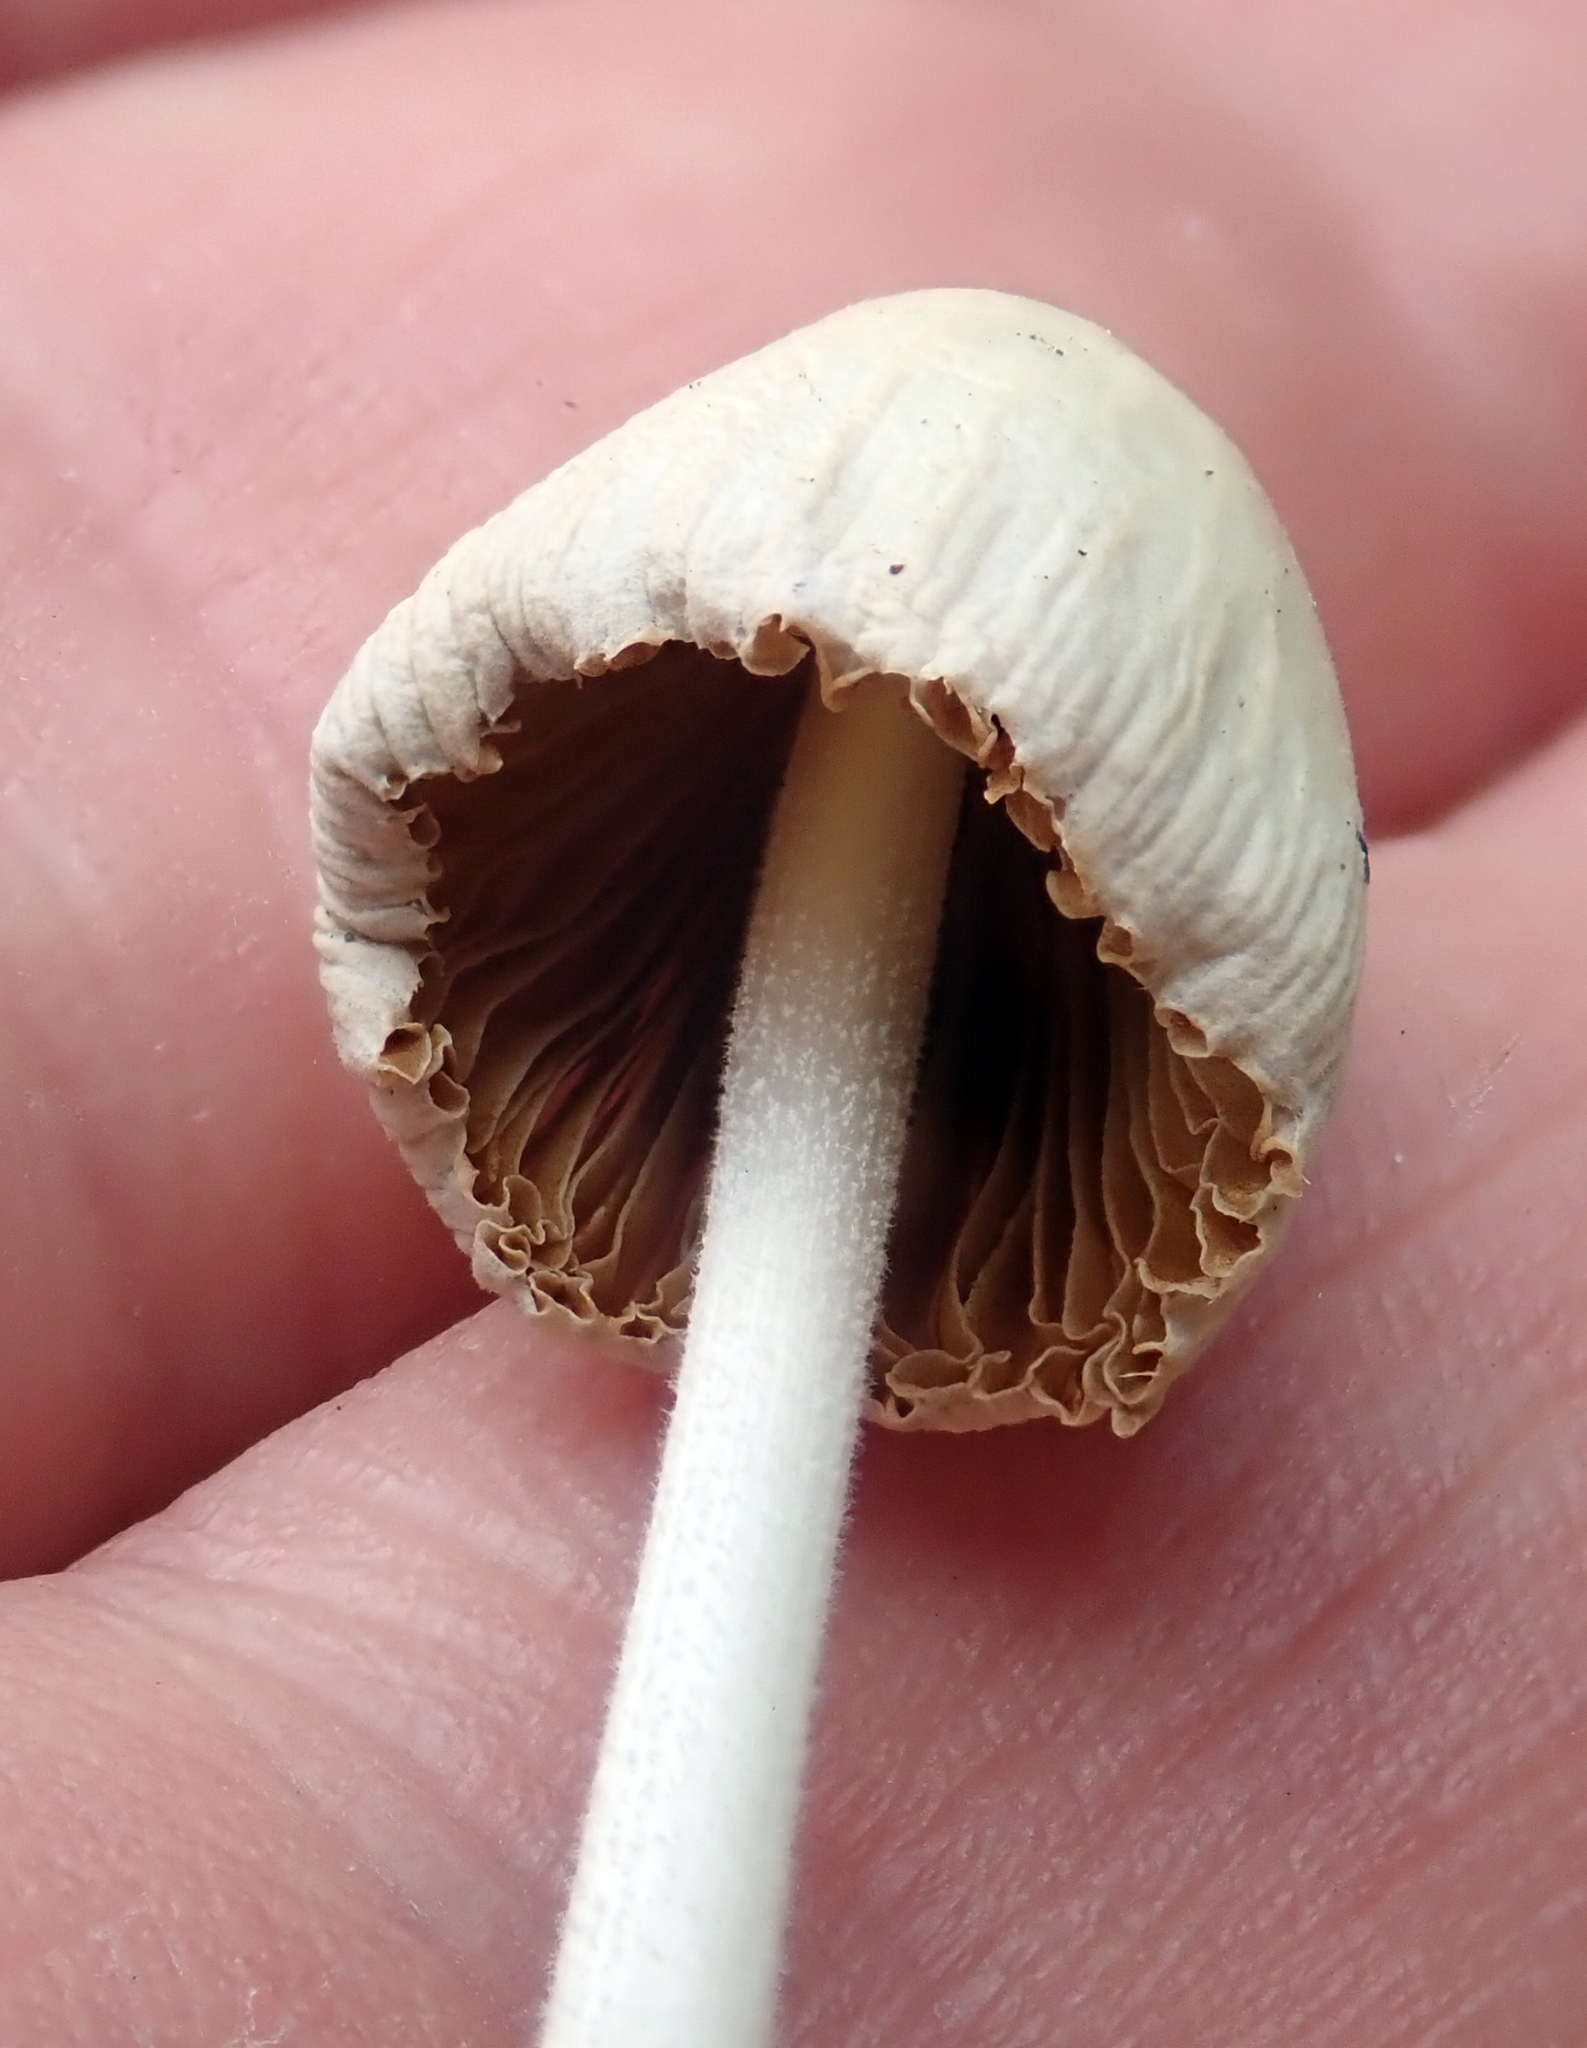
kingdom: Fungi
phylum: Basidiomycota
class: Agaricomycetes
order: Agaricales
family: Bolbitiaceae
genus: Conocybe
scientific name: Conocybe apala
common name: Milky conecap
